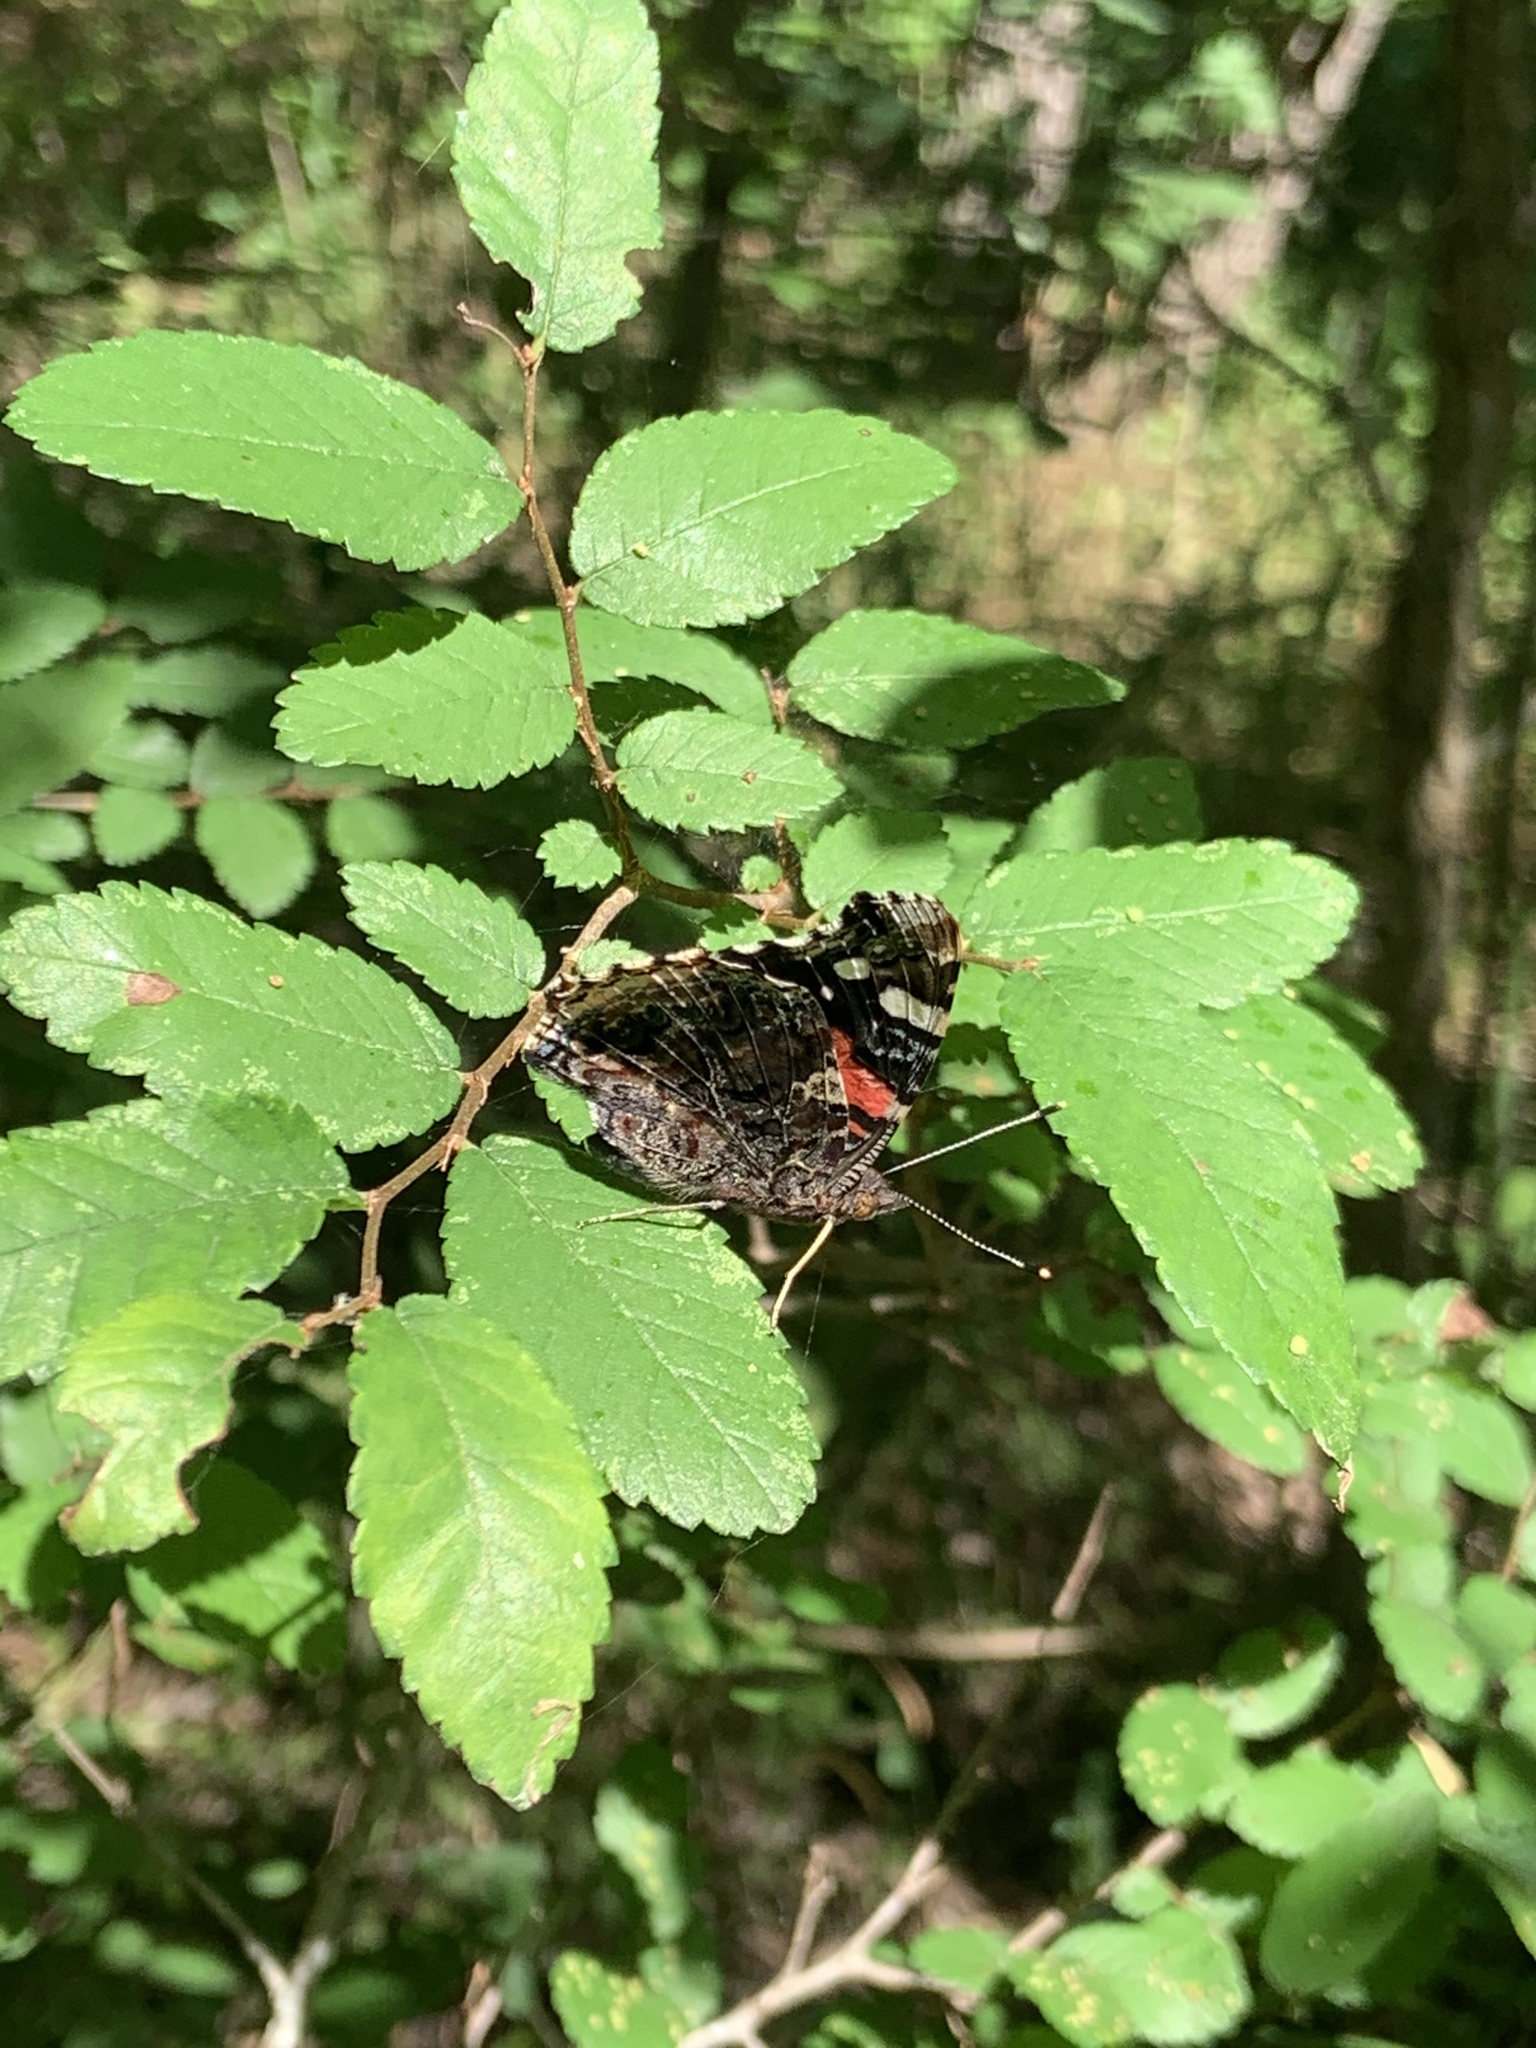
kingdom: Animalia
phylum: Arthropoda
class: Insecta
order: Lepidoptera
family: Nymphalidae
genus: Vanessa
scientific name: Vanessa atalanta
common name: Red admiral
